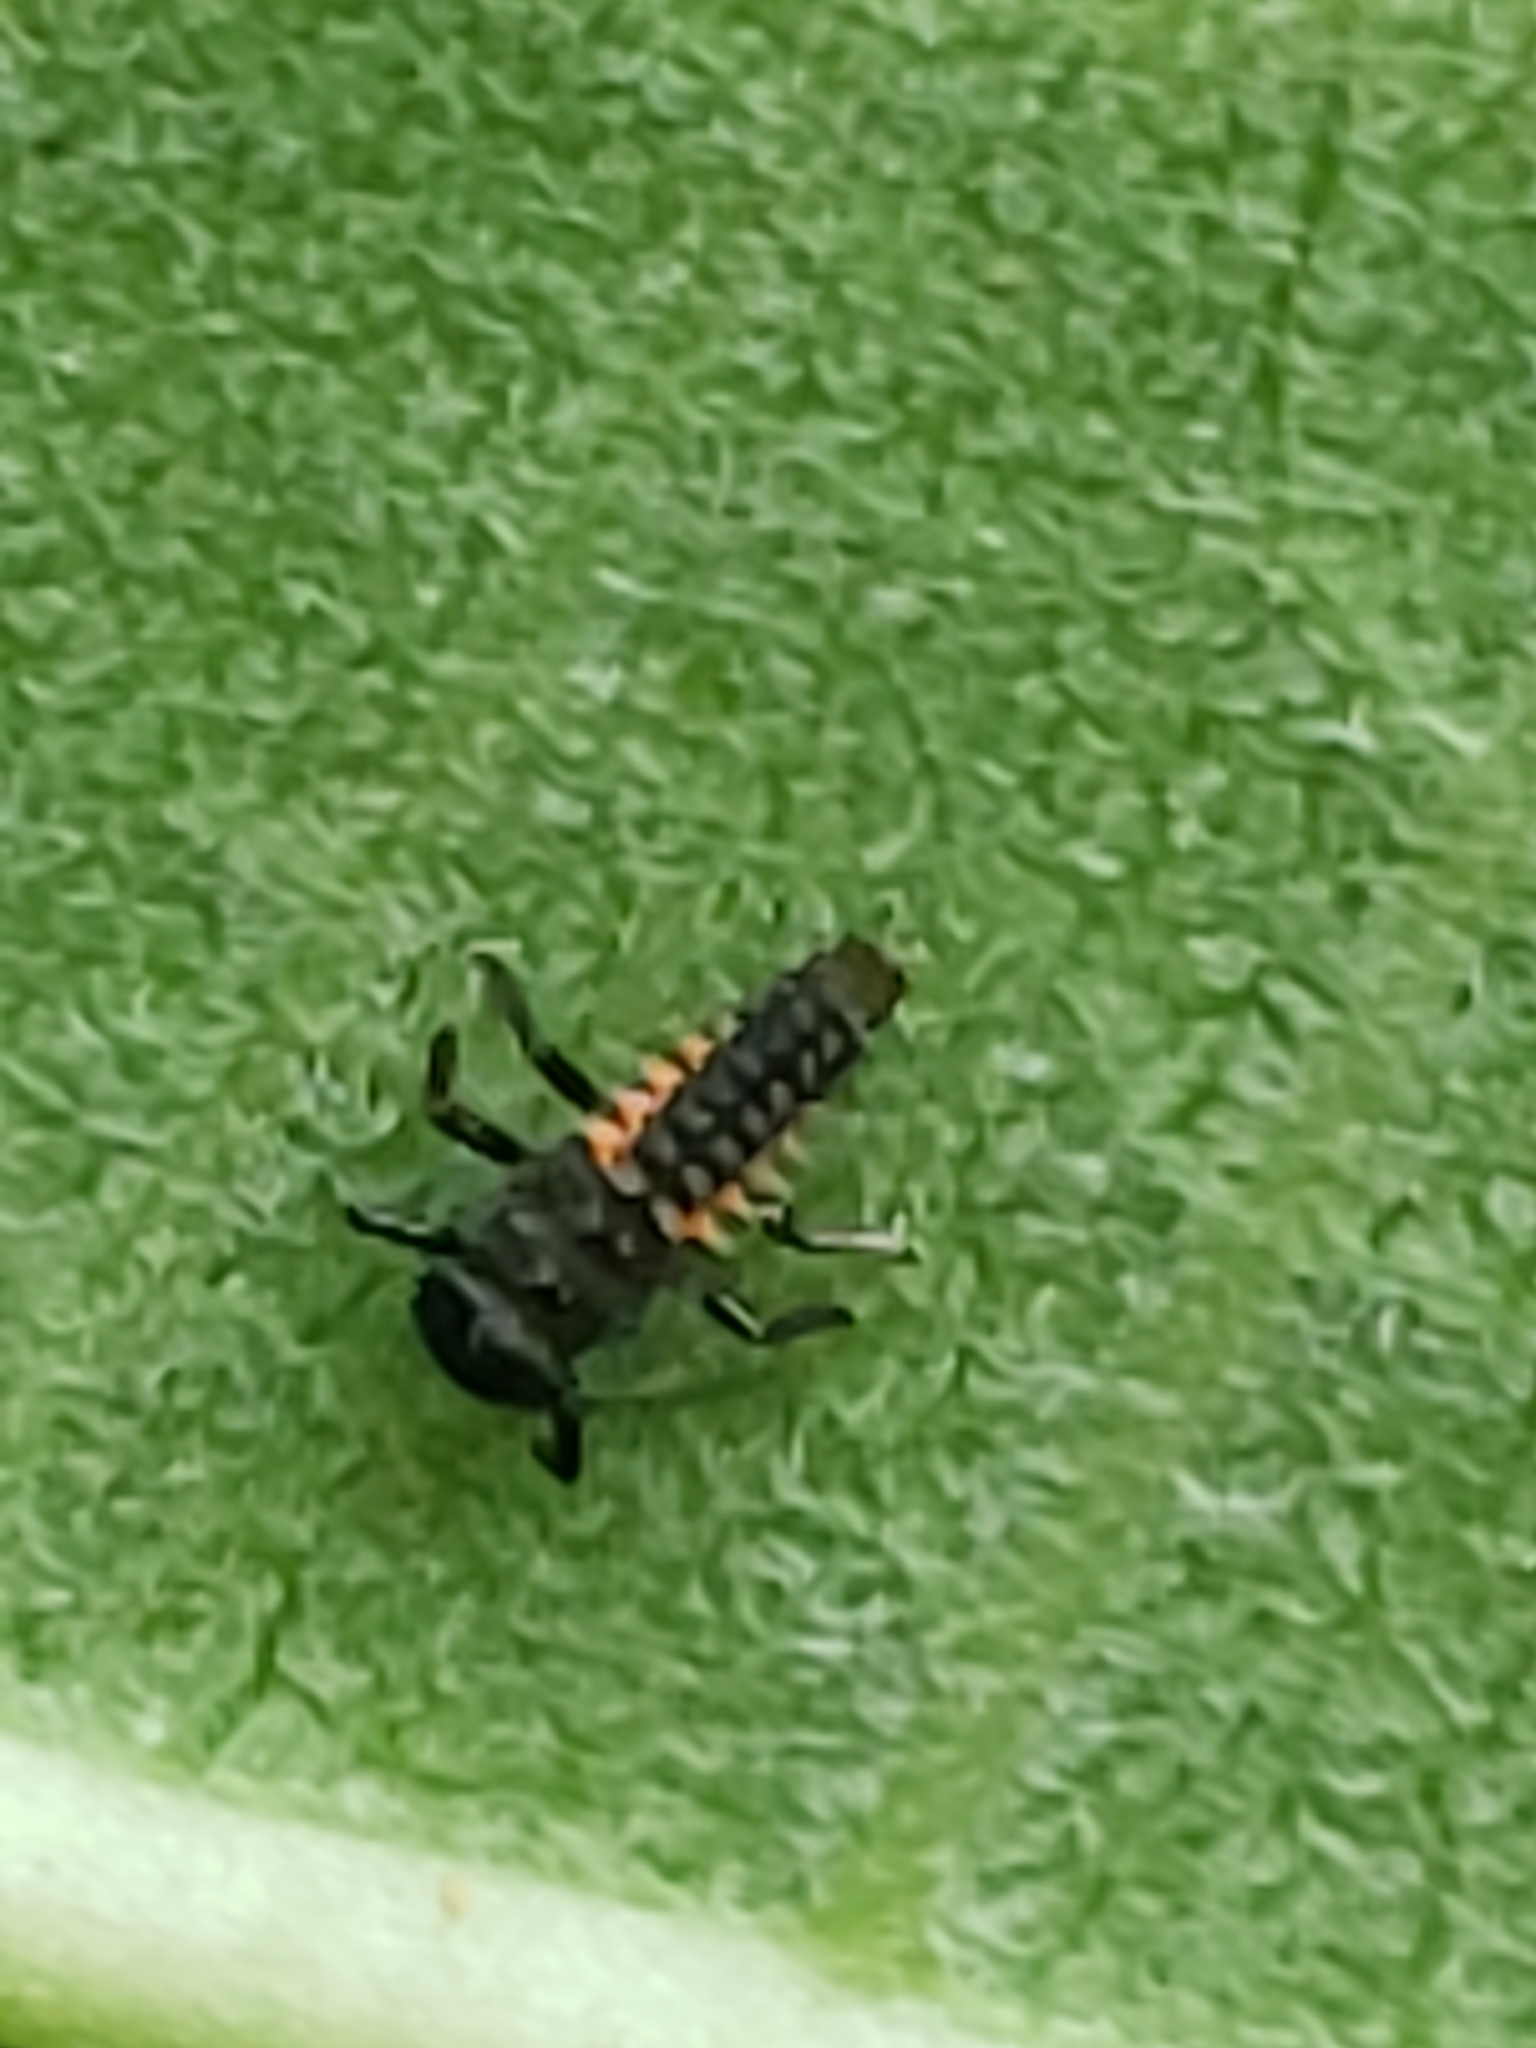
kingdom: Animalia
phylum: Arthropoda
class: Insecta
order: Coleoptera
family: Coccinellidae
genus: Harmonia
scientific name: Harmonia axyridis
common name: Harlequin ladybird
